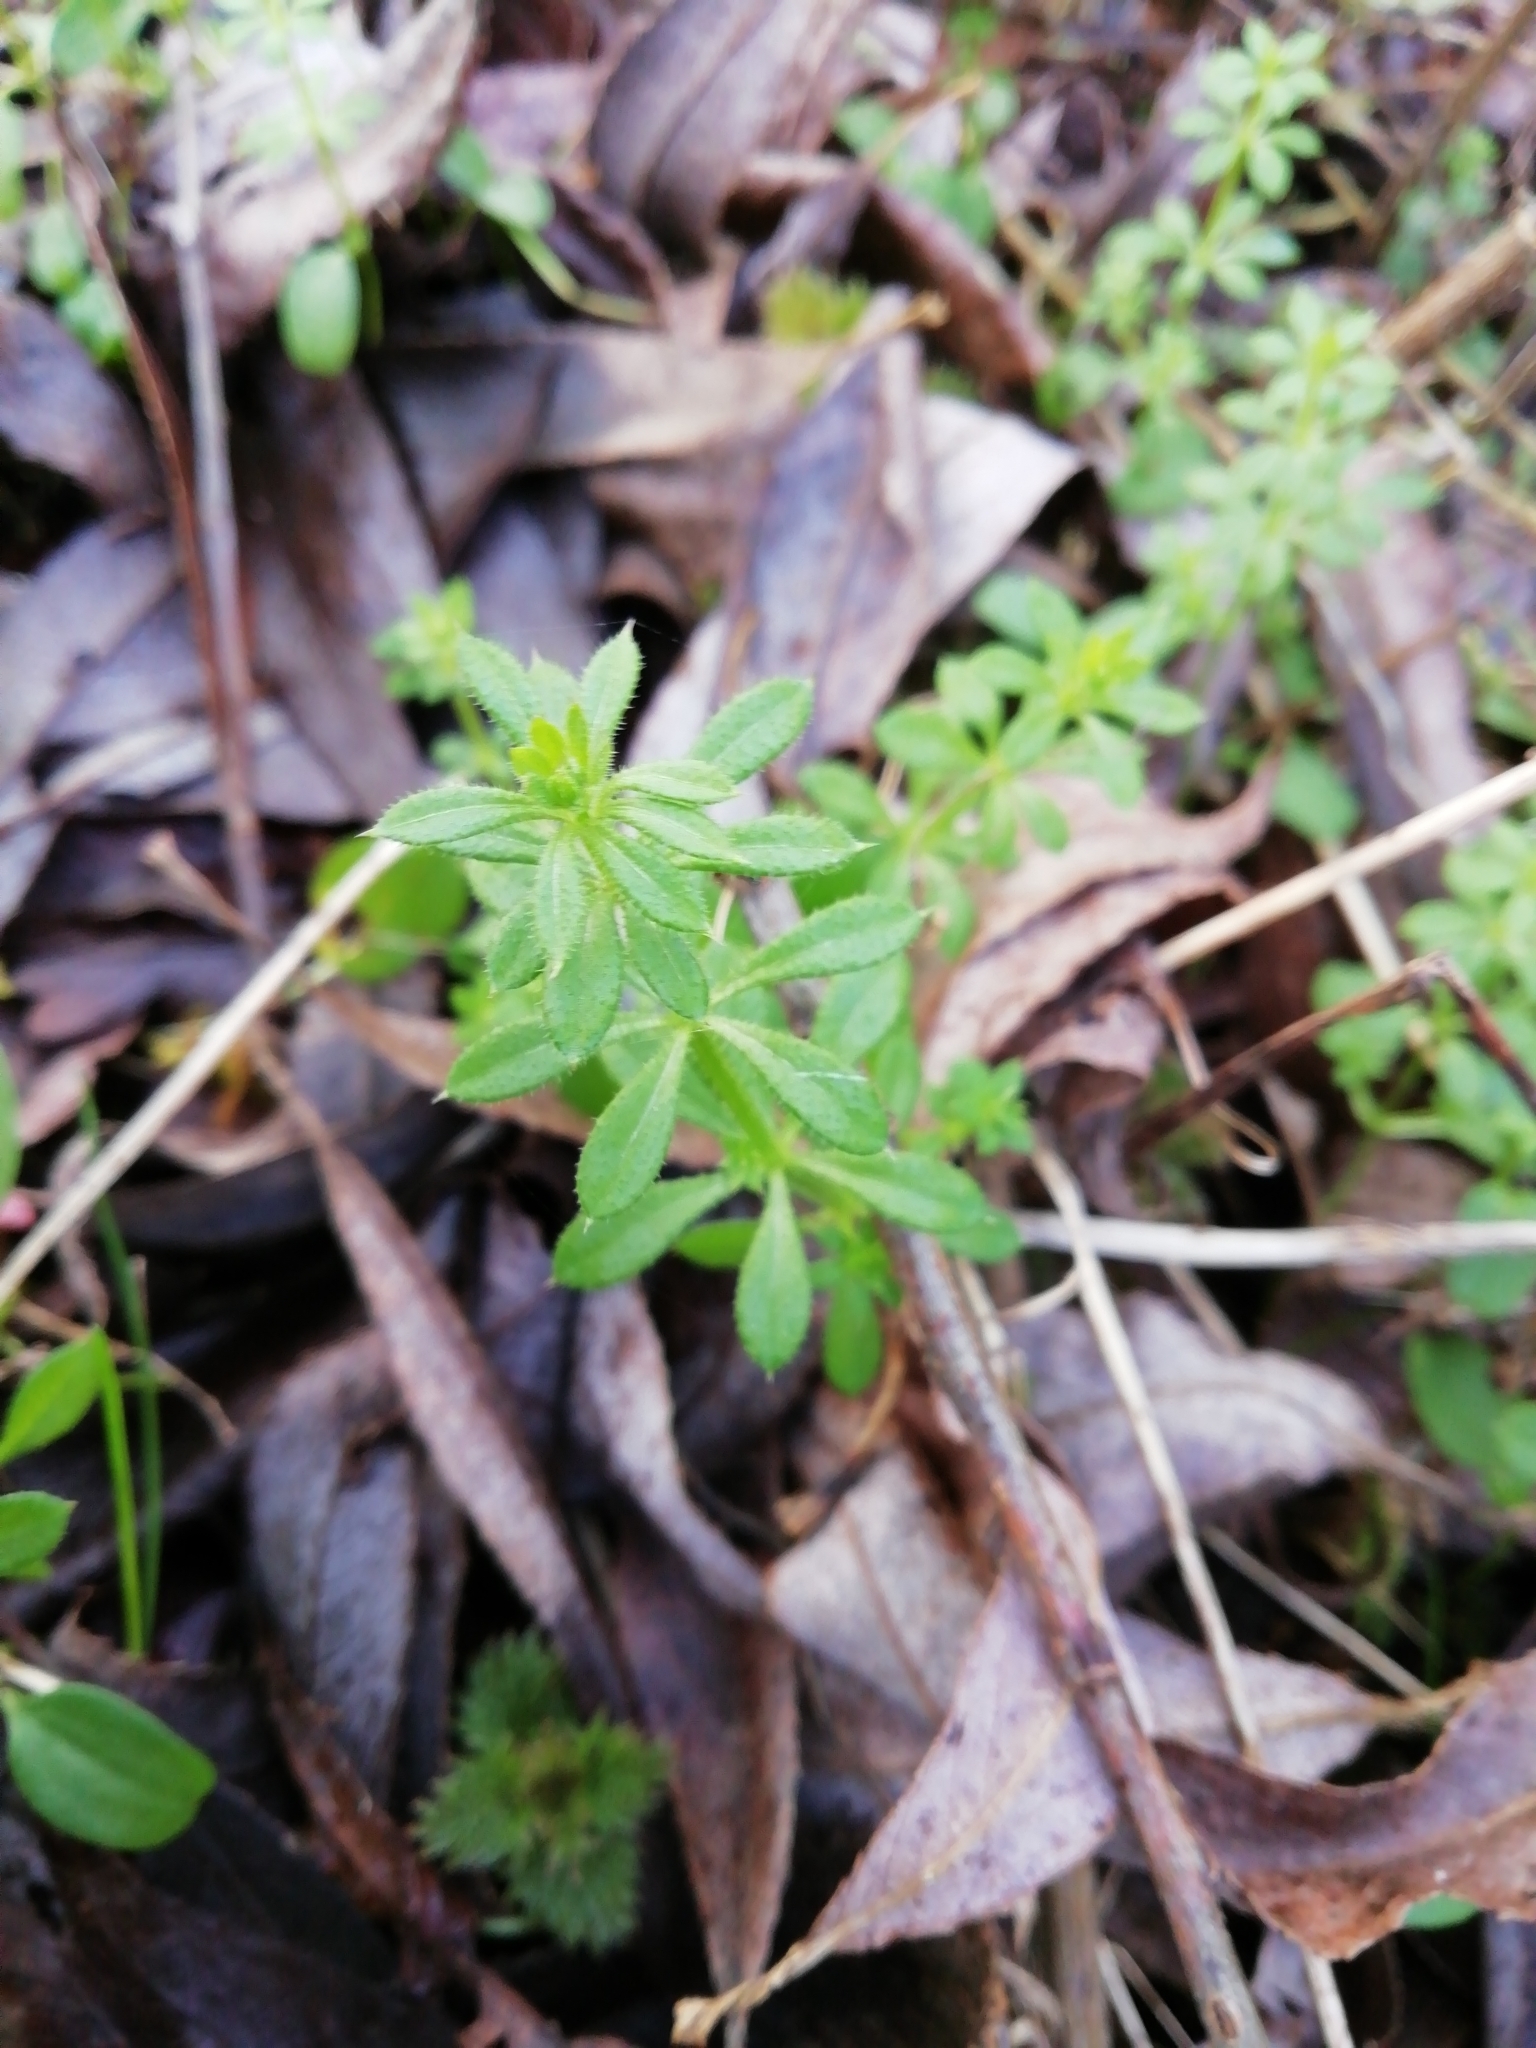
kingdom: Plantae
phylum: Tracheophyta
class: Magnoliopsida
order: Gentianales
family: Rubiaceae
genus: Galium
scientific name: Galium aparine
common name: Cleavers
